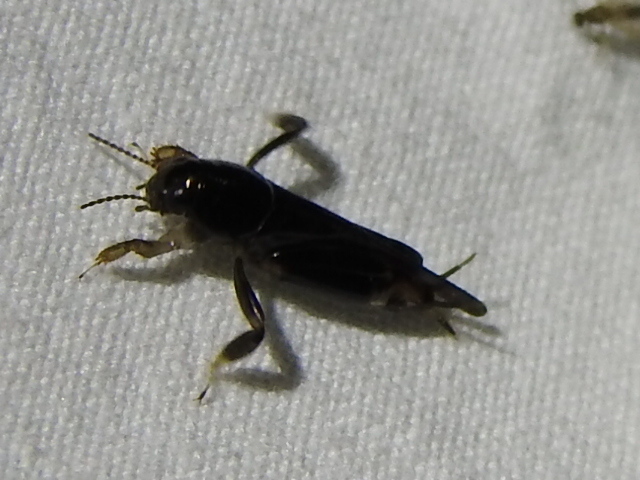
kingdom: Animalia
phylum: Arthropoda
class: Insecta
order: Orthoptera
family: Tridactylidae
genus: Neotridactylus
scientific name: Neotridactylus apicialis
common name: Larger pygmy locust
